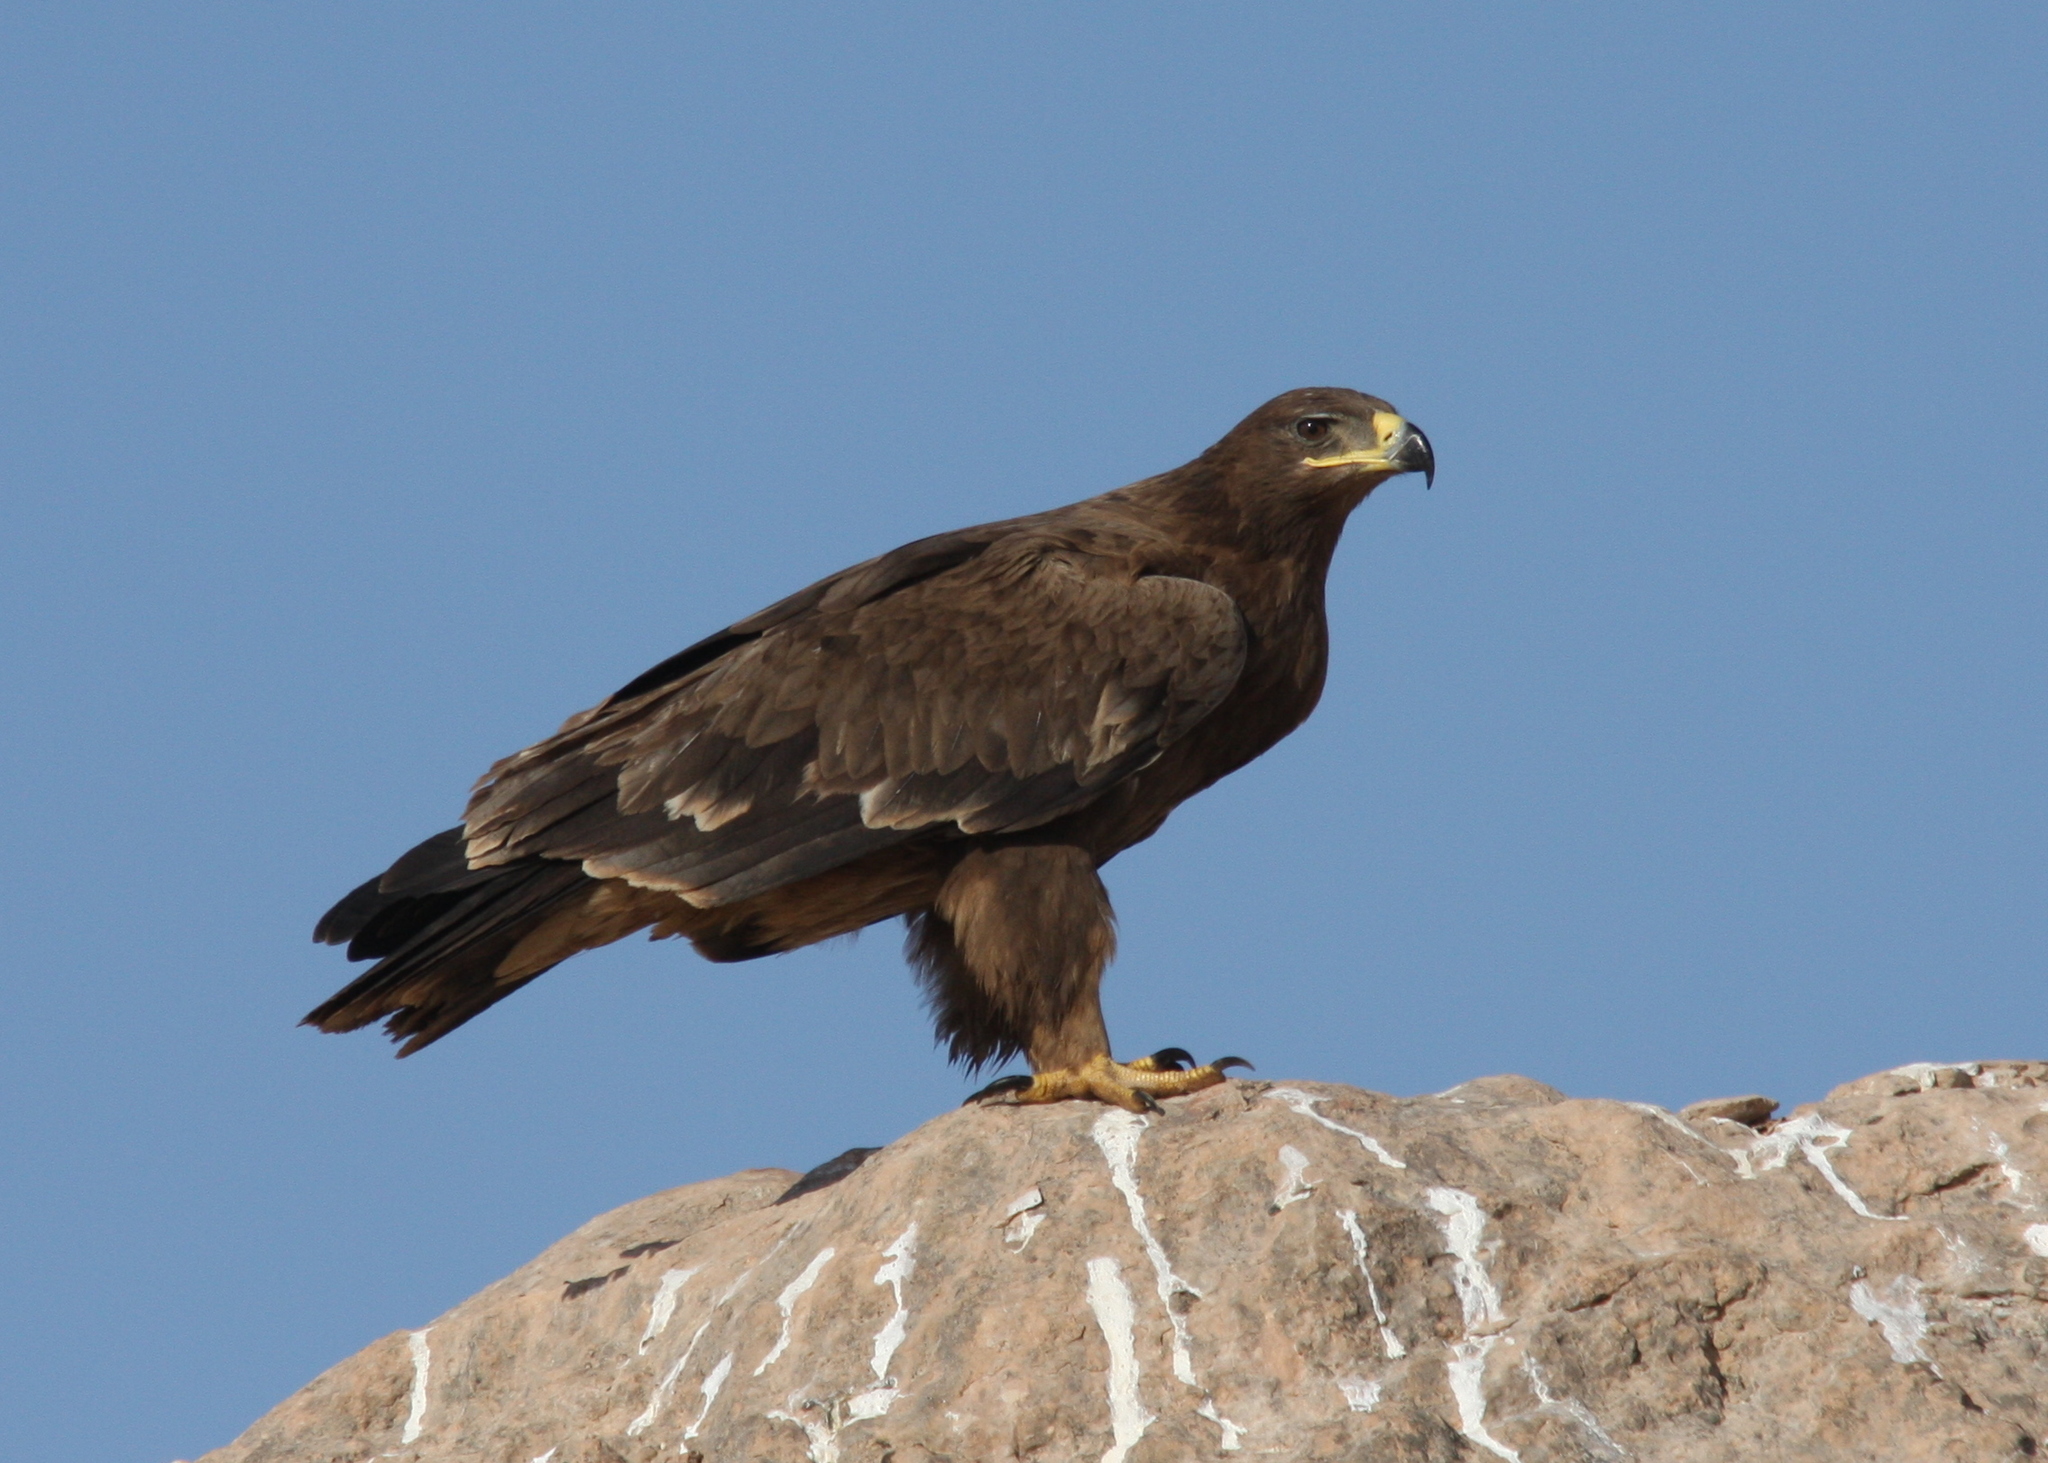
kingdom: Animalia
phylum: Chordata
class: Aves
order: Accipitriformes
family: Accipitridae
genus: Aquila
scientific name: Aquila nipalensis
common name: Steppe eagle
